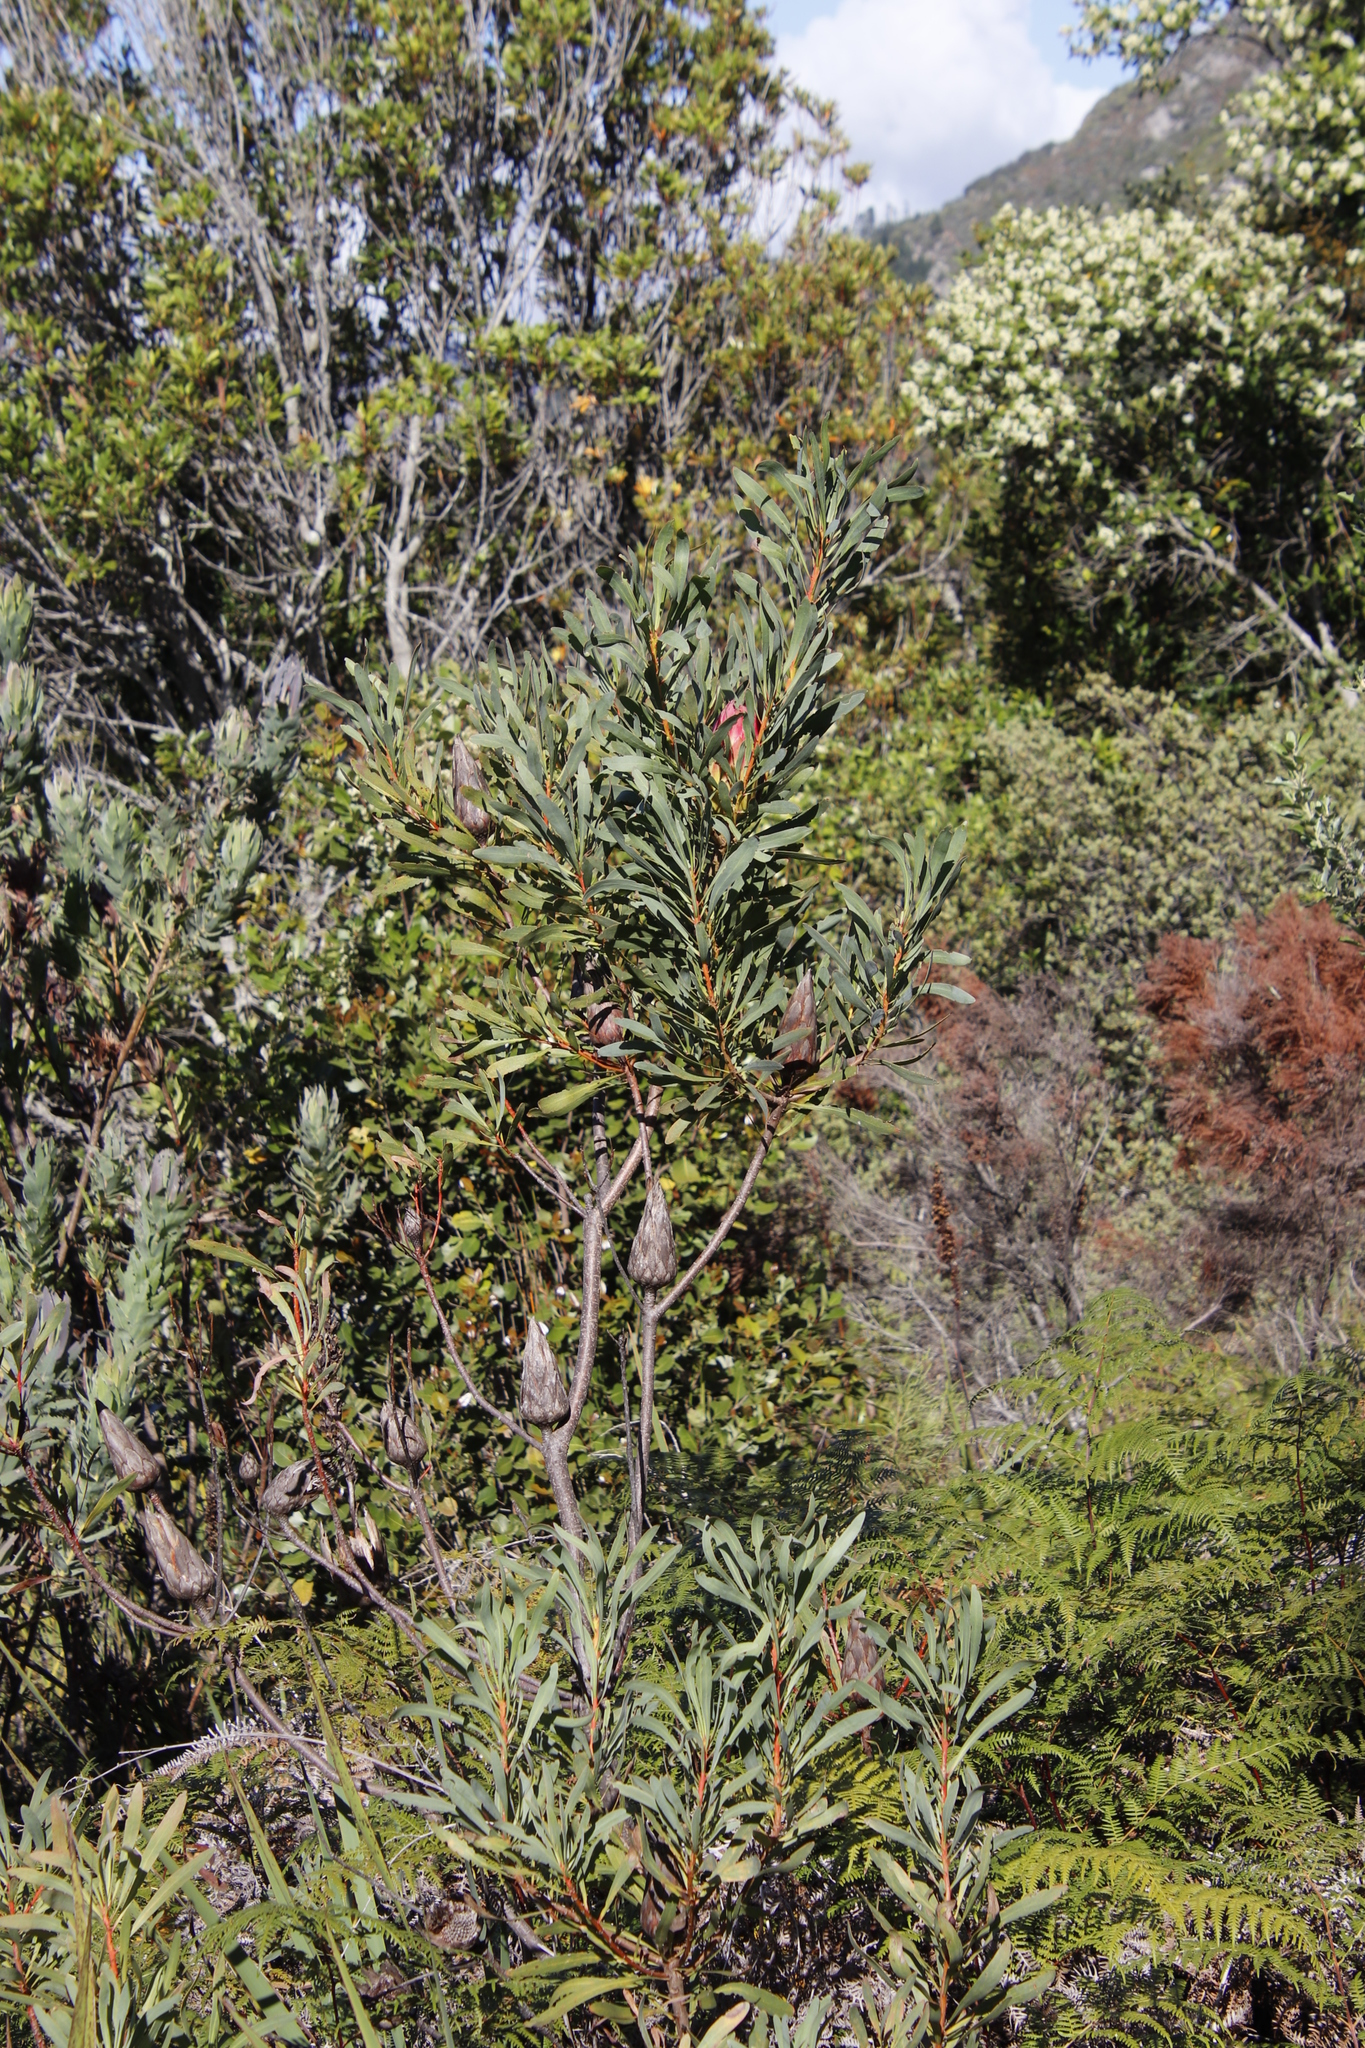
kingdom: Plantae
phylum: Tracheophyta
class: Magnoliopsida
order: Proteales
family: Proteaceae
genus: Protea
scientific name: Protea repens
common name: Sugarbush
